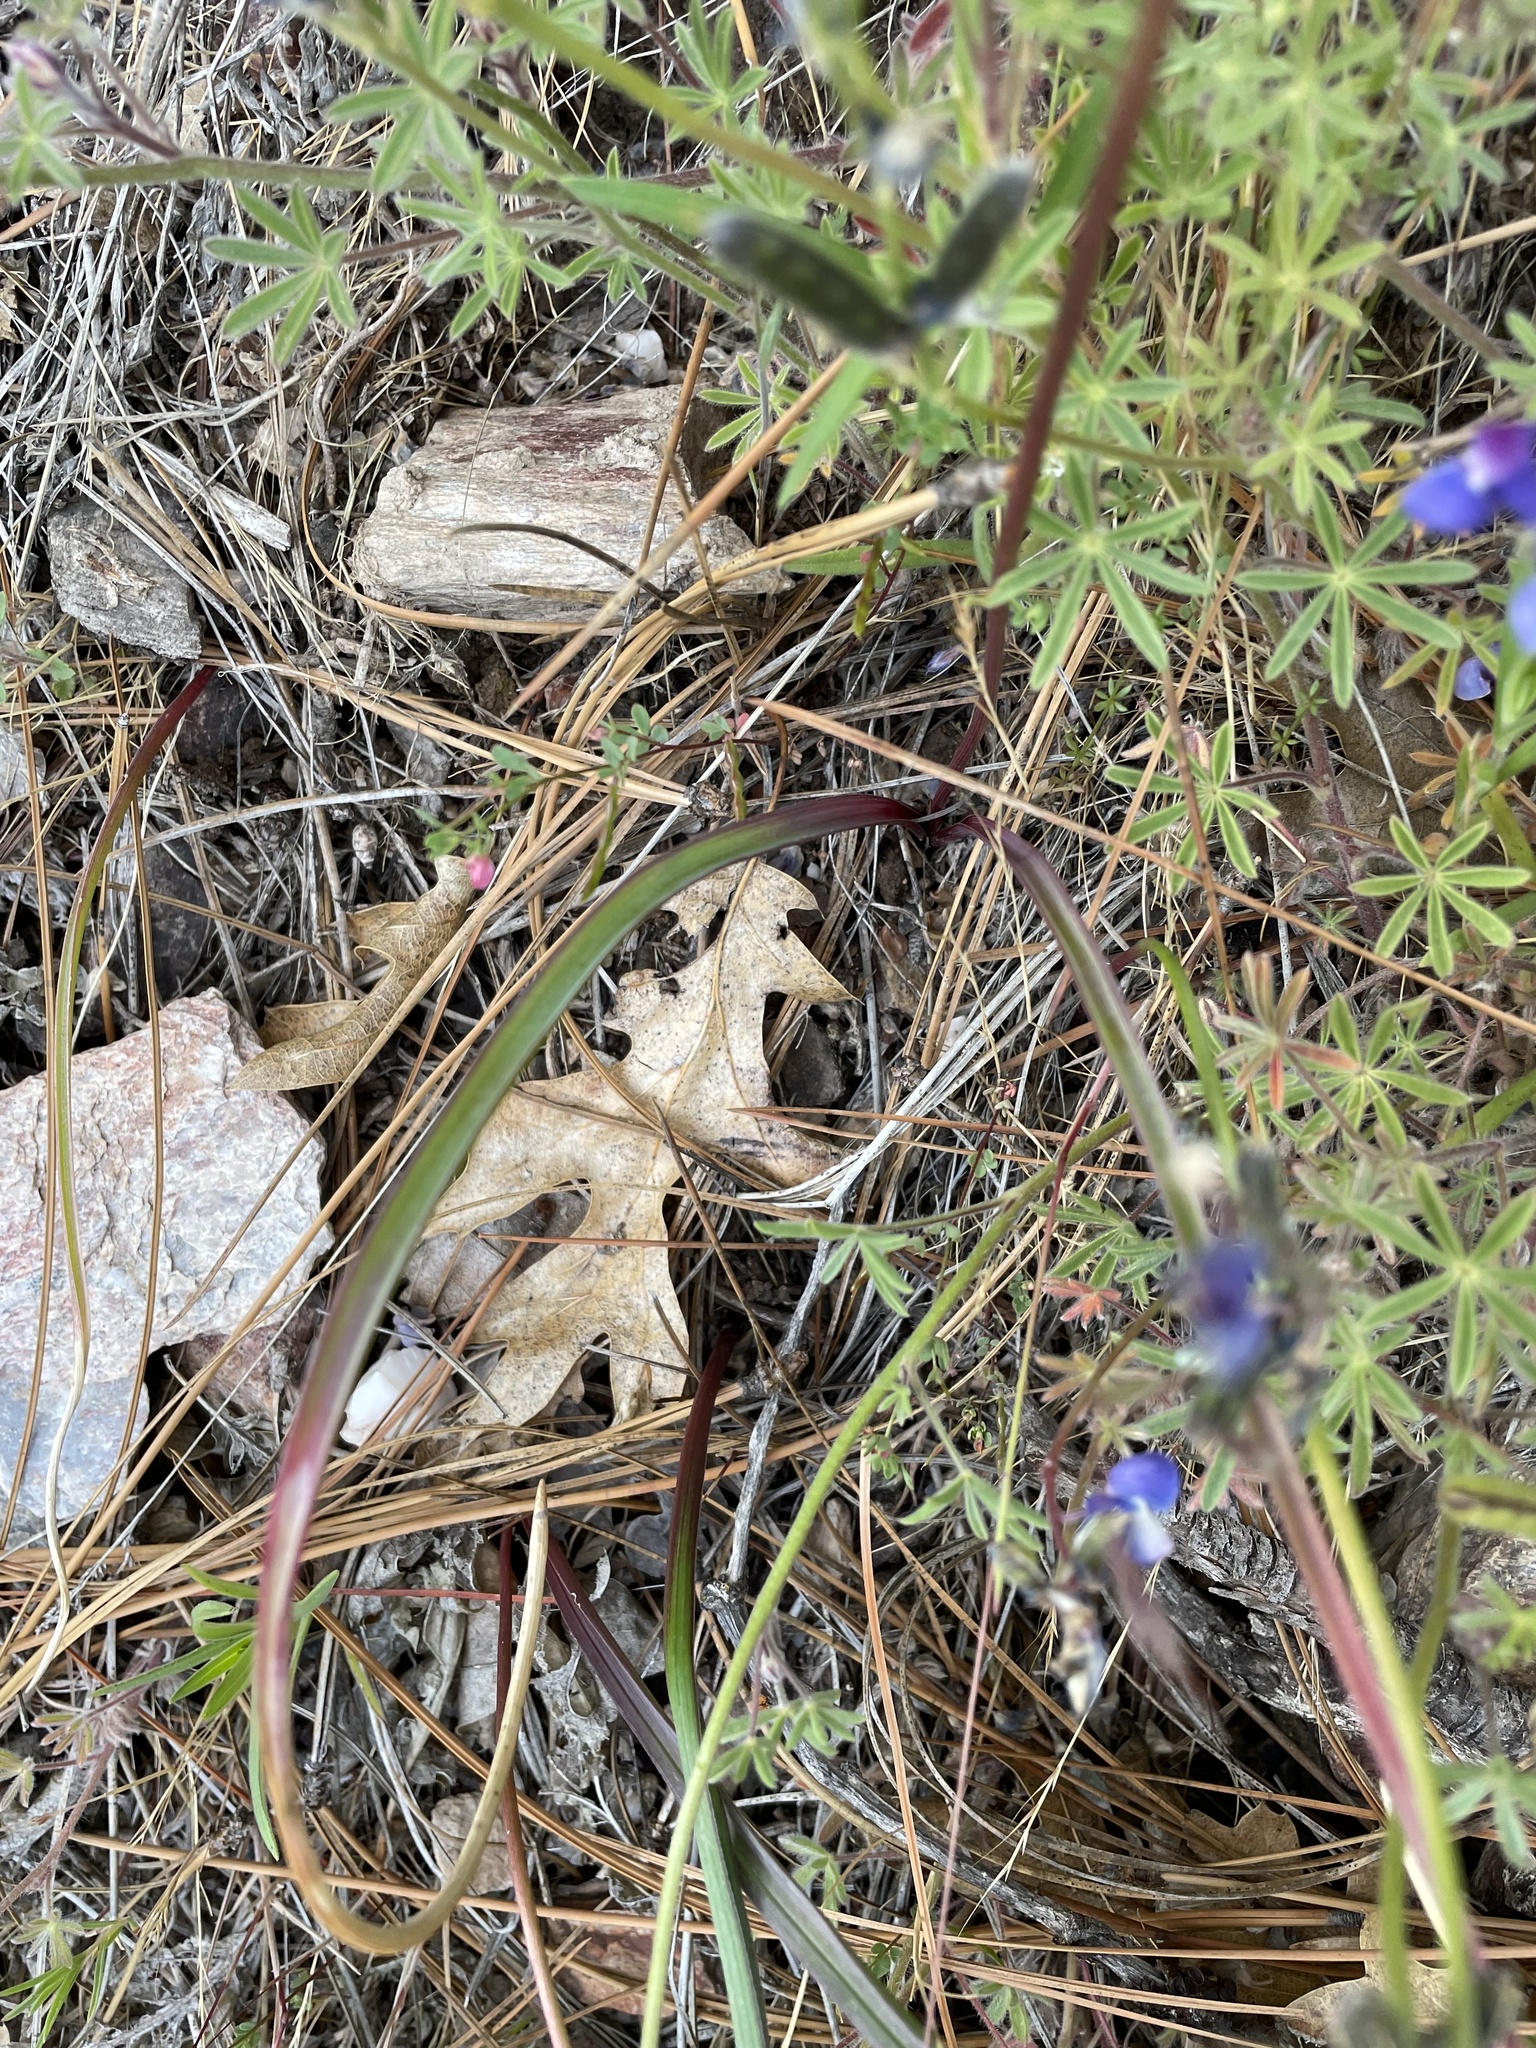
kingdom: Plantae
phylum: Tracheophyta
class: Liliopsida
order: Asparagales
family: Asparagaceae
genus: Dichelostemma
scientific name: Dichelostemma multiflorum
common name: Round-tooth ookow
